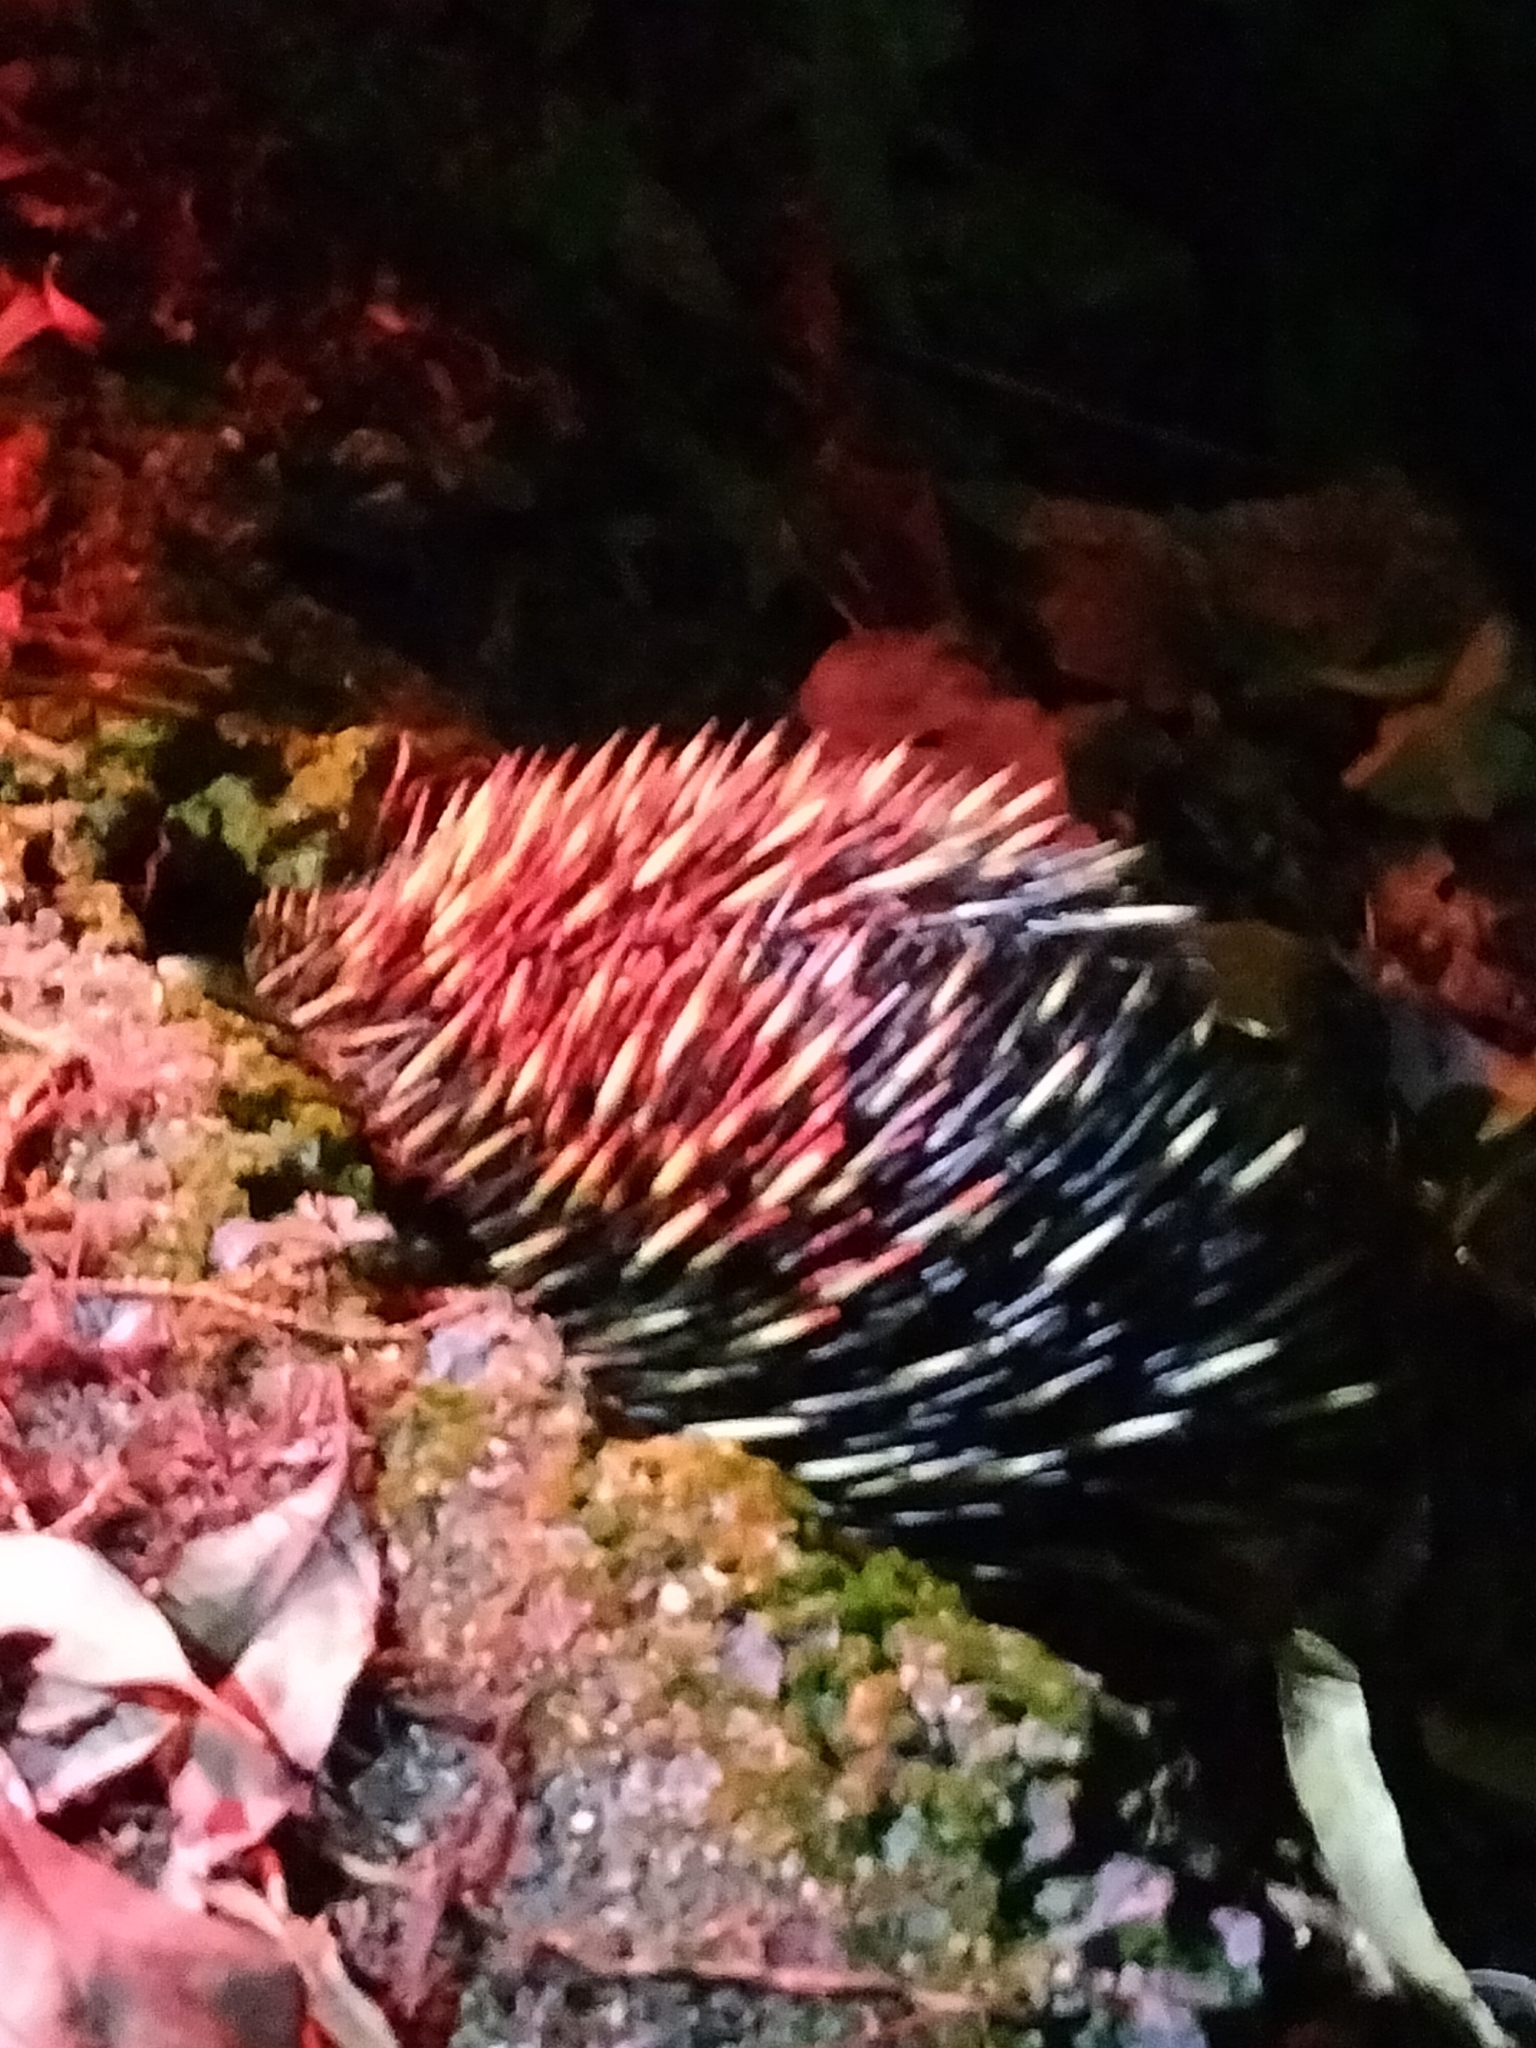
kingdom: Animalia
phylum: Chordata
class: Mammalia
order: Monotremata
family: Tachyglossidae
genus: Tachyglossus
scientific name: Tachyglossus aculeatus
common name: Short-beaked echidna
